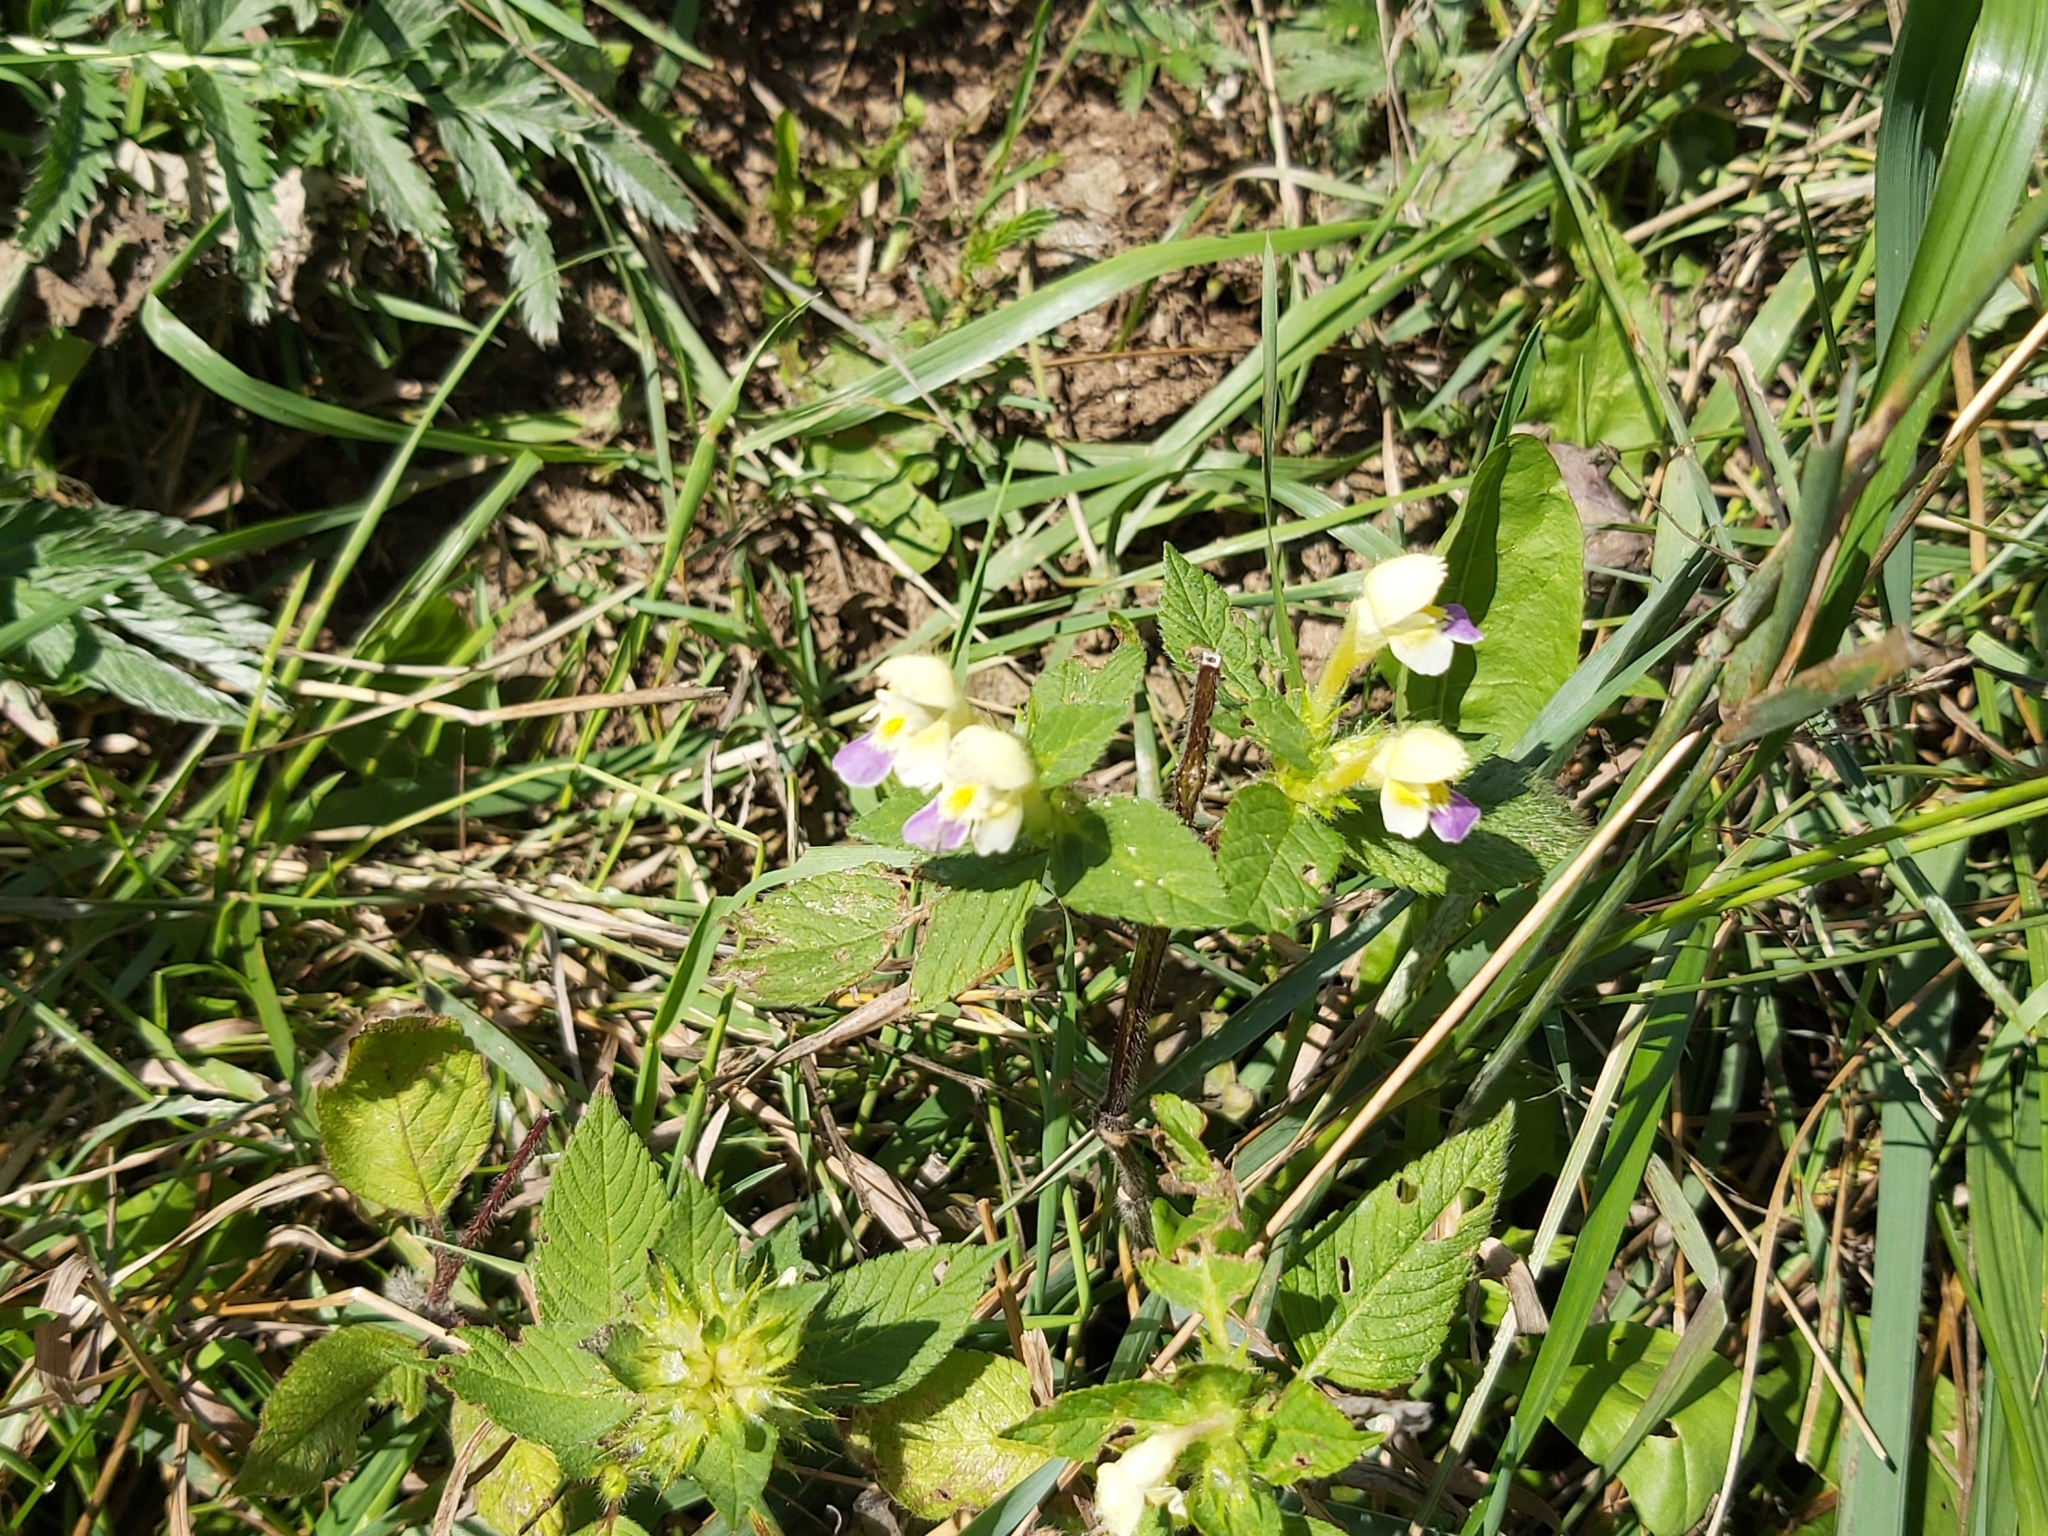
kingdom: Plantae
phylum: Tracheophyta
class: Magnoliopsida
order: Lamiales
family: Lamiaceae
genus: Galeopsis
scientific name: Galeopsis speciosa
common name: Large-flowered hemp-nettle
